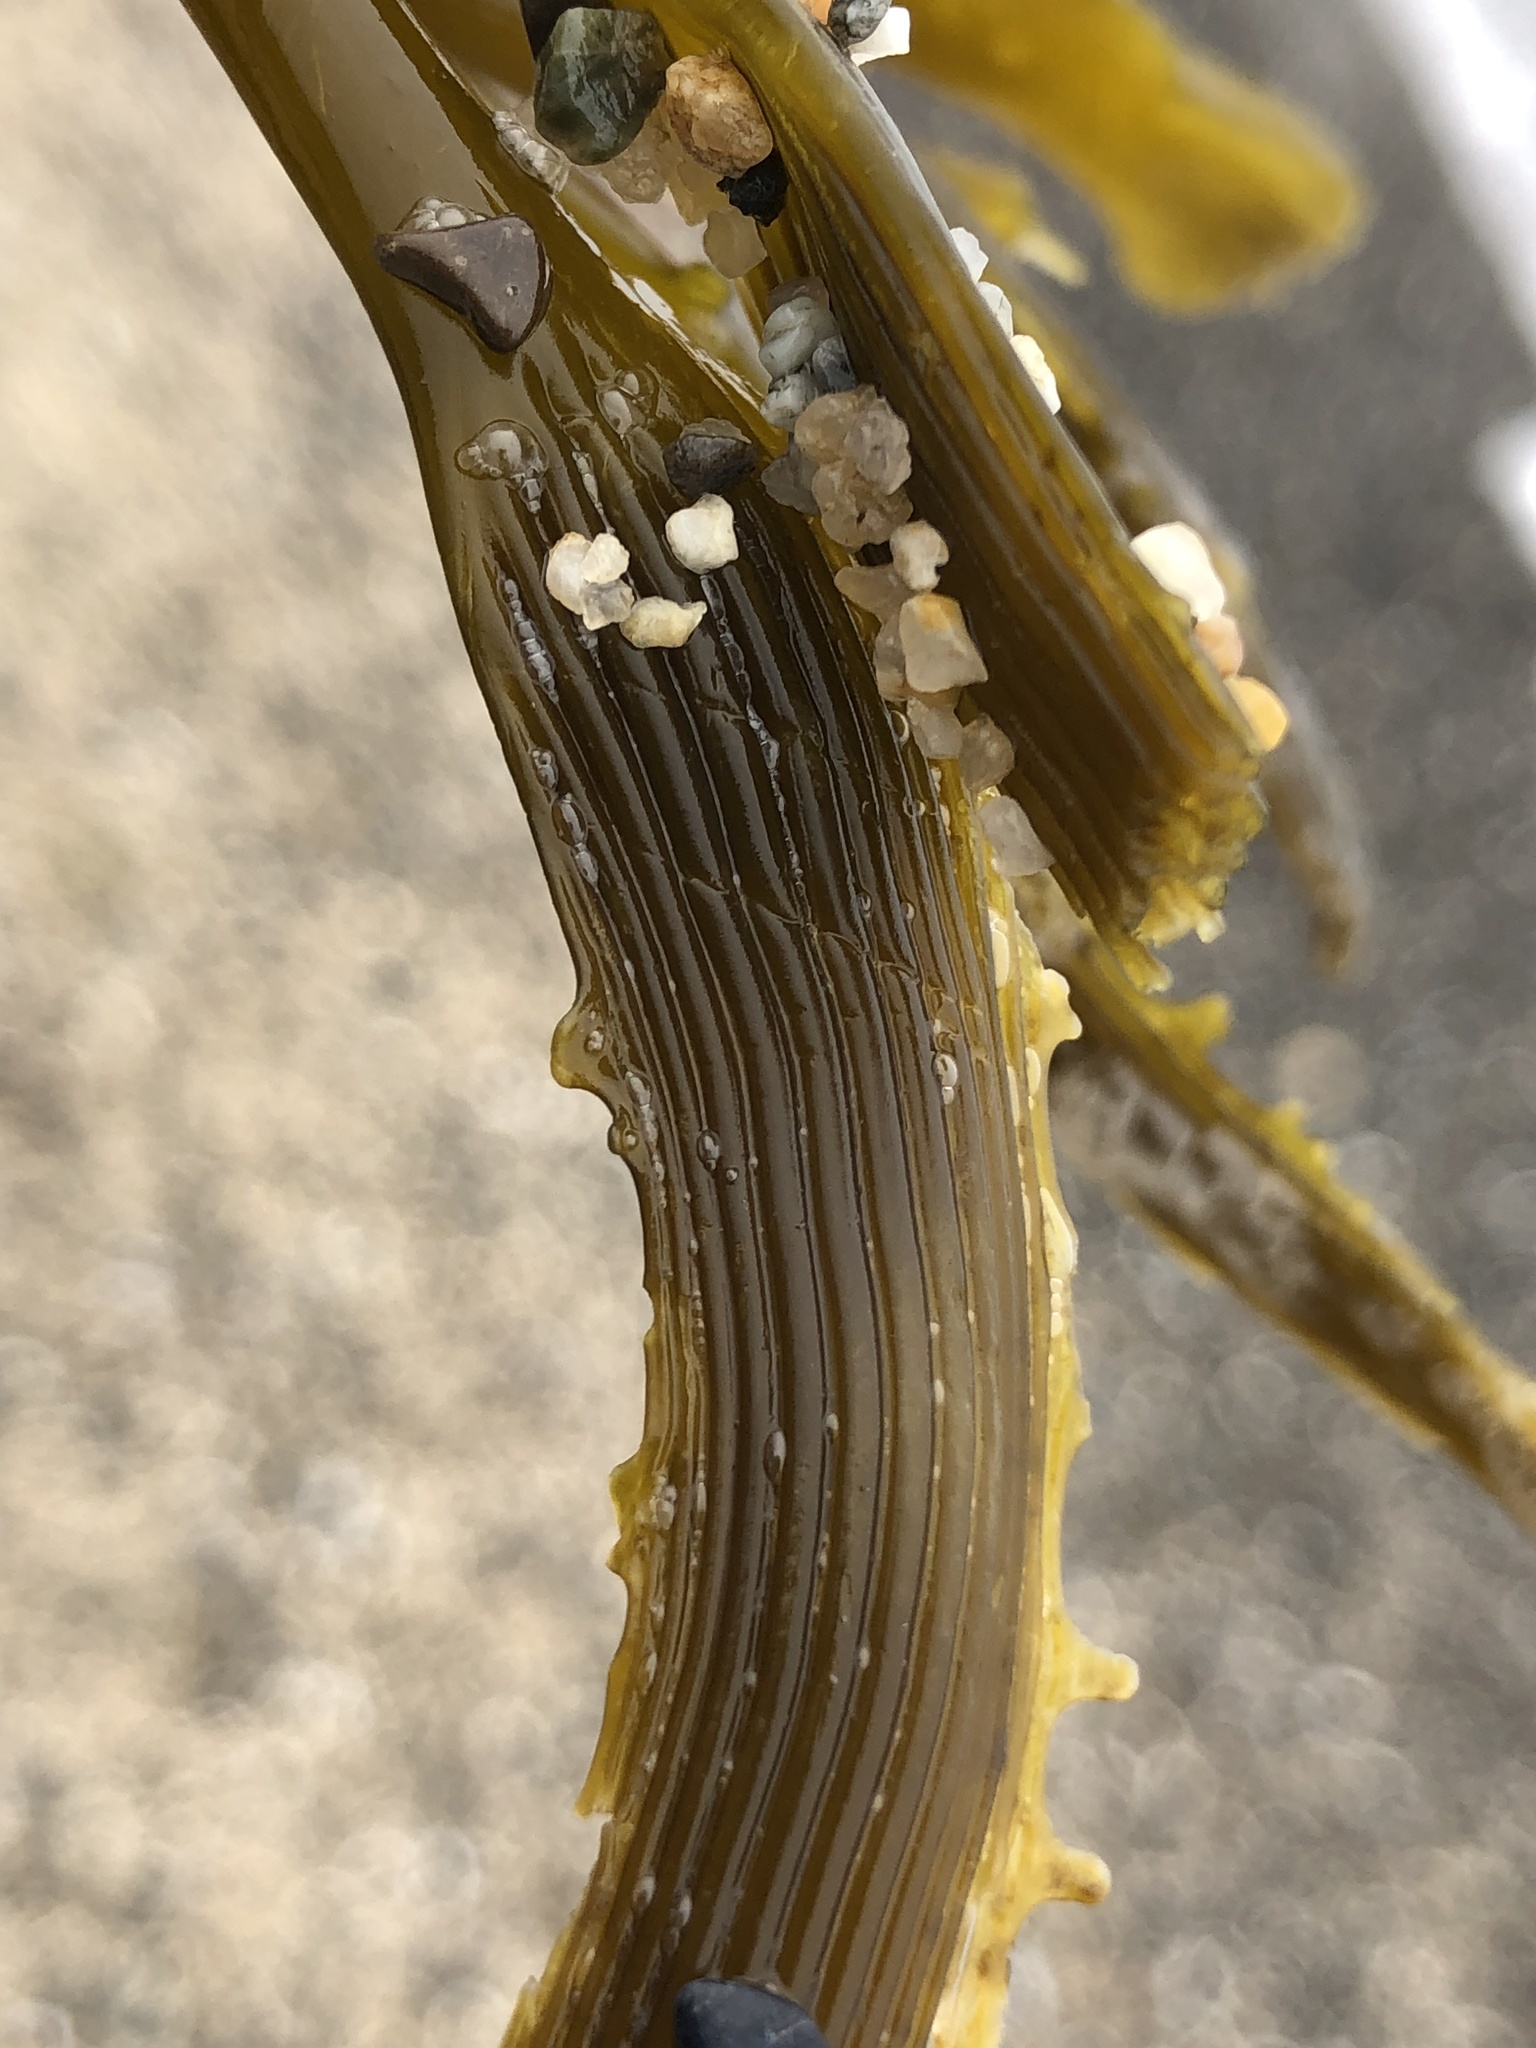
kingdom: Chromista
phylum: Ochrophyta
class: Phaeophyceae
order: Laminariales
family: Laminariaceae
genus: Postelsia
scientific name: Postelsia palmiformis
